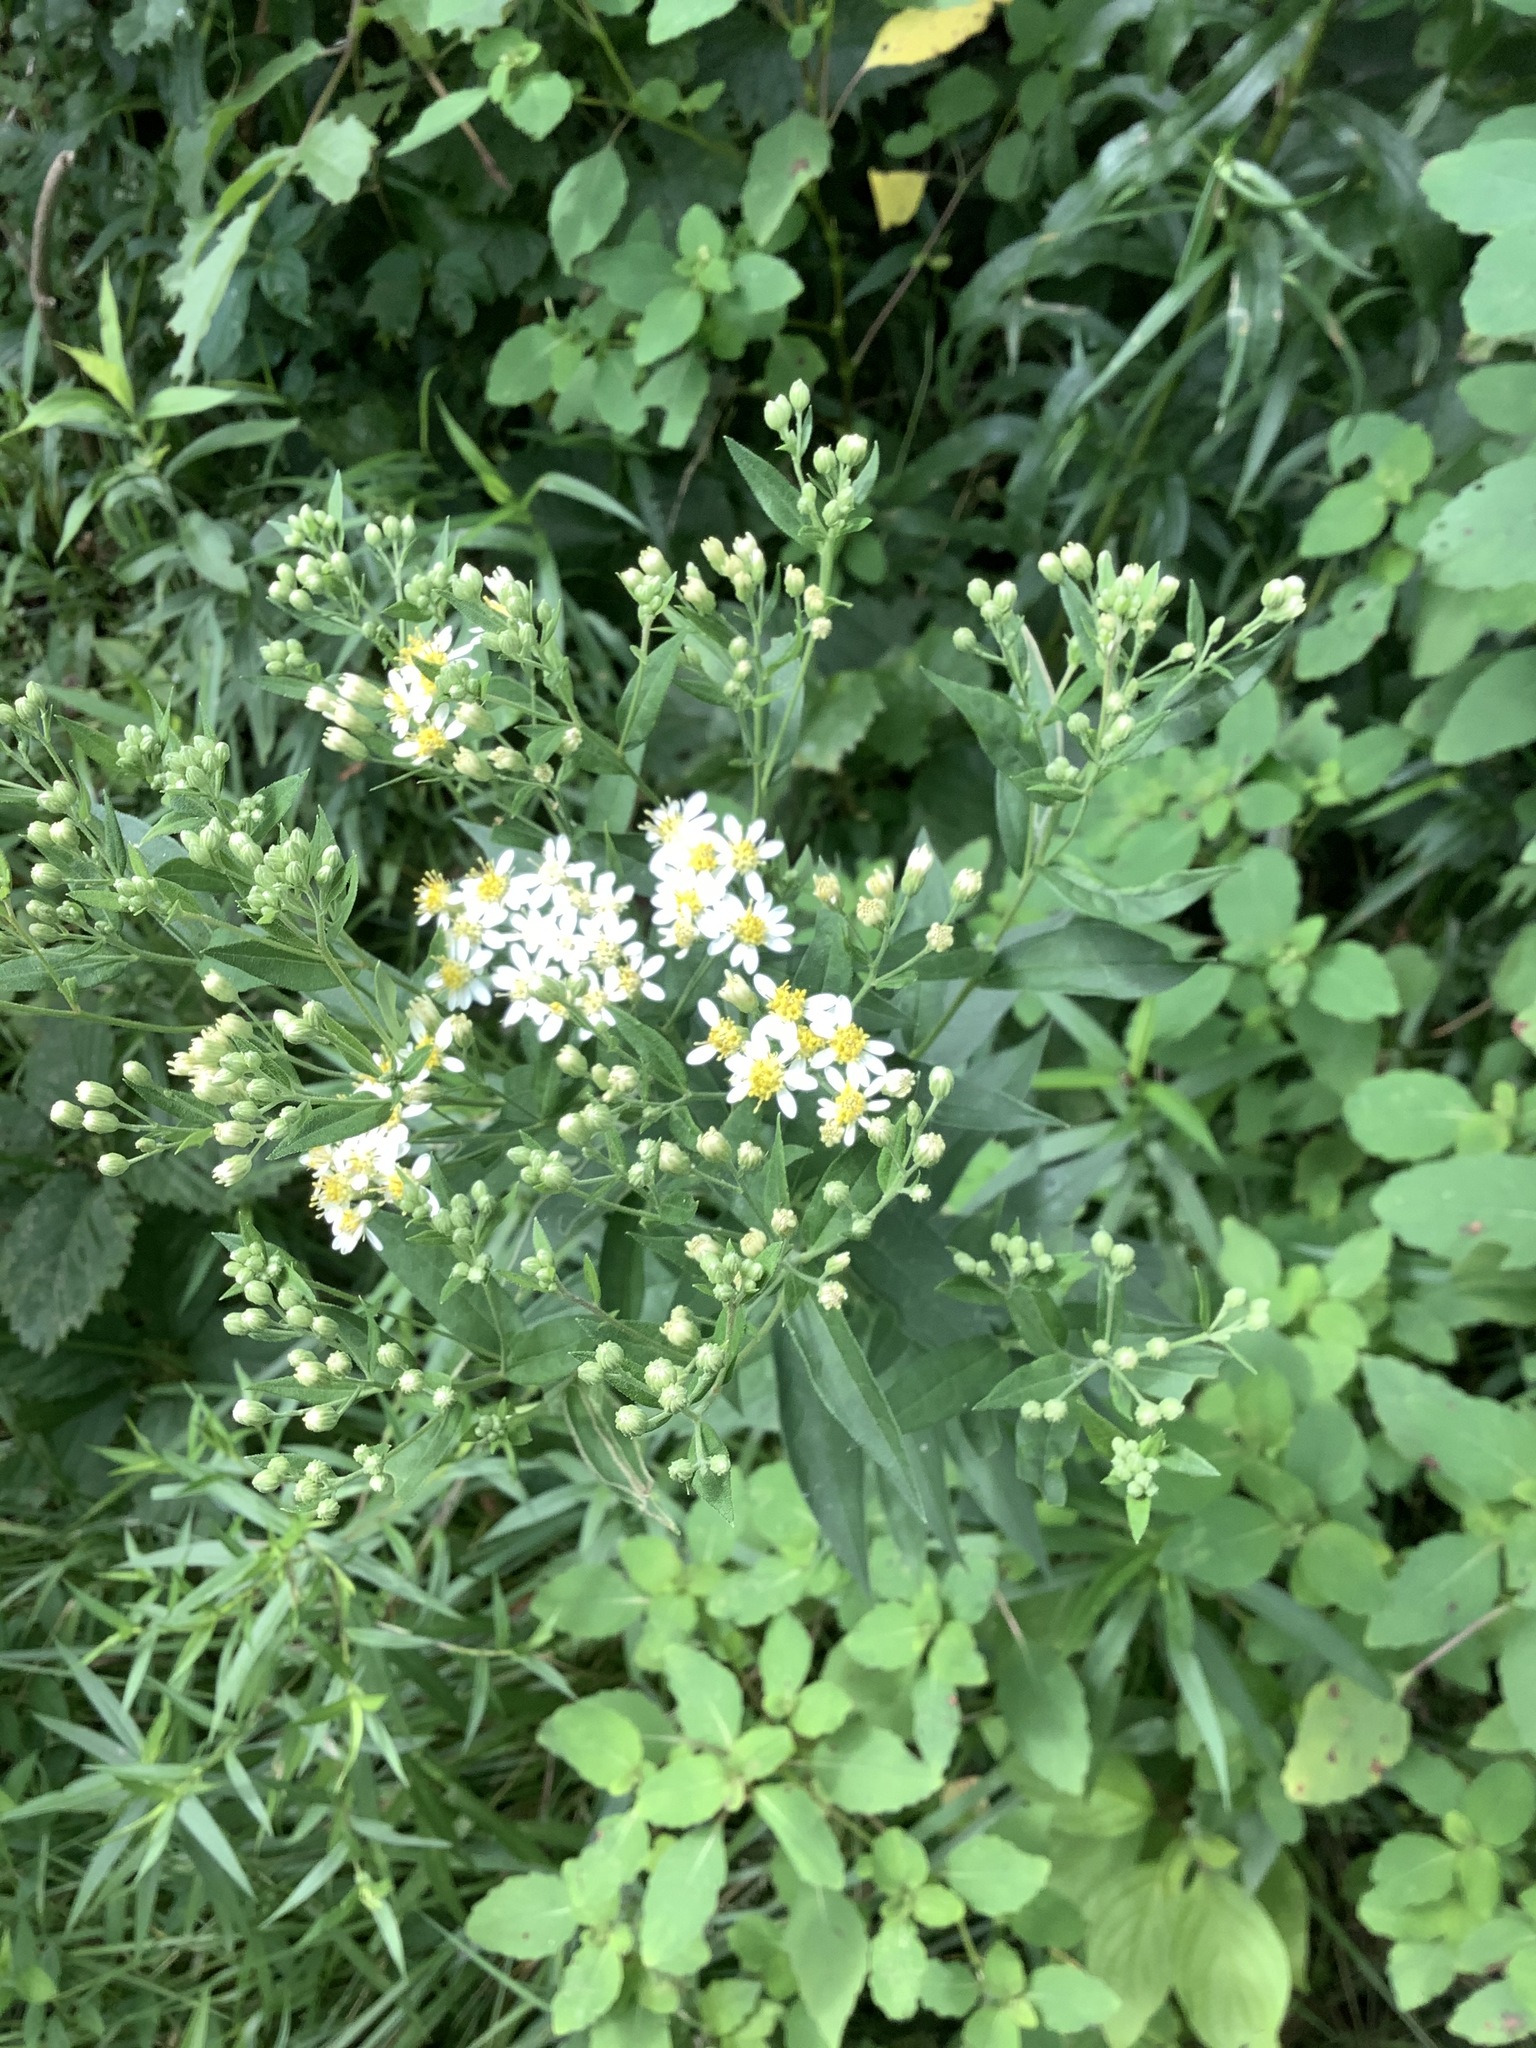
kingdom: Plantae
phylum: Tracheophyta
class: Magnoliopsida
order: Asterales
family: Asteraceae
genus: Doellingeria
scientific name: Doellingeria umbellata
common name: Flat-top white aster
